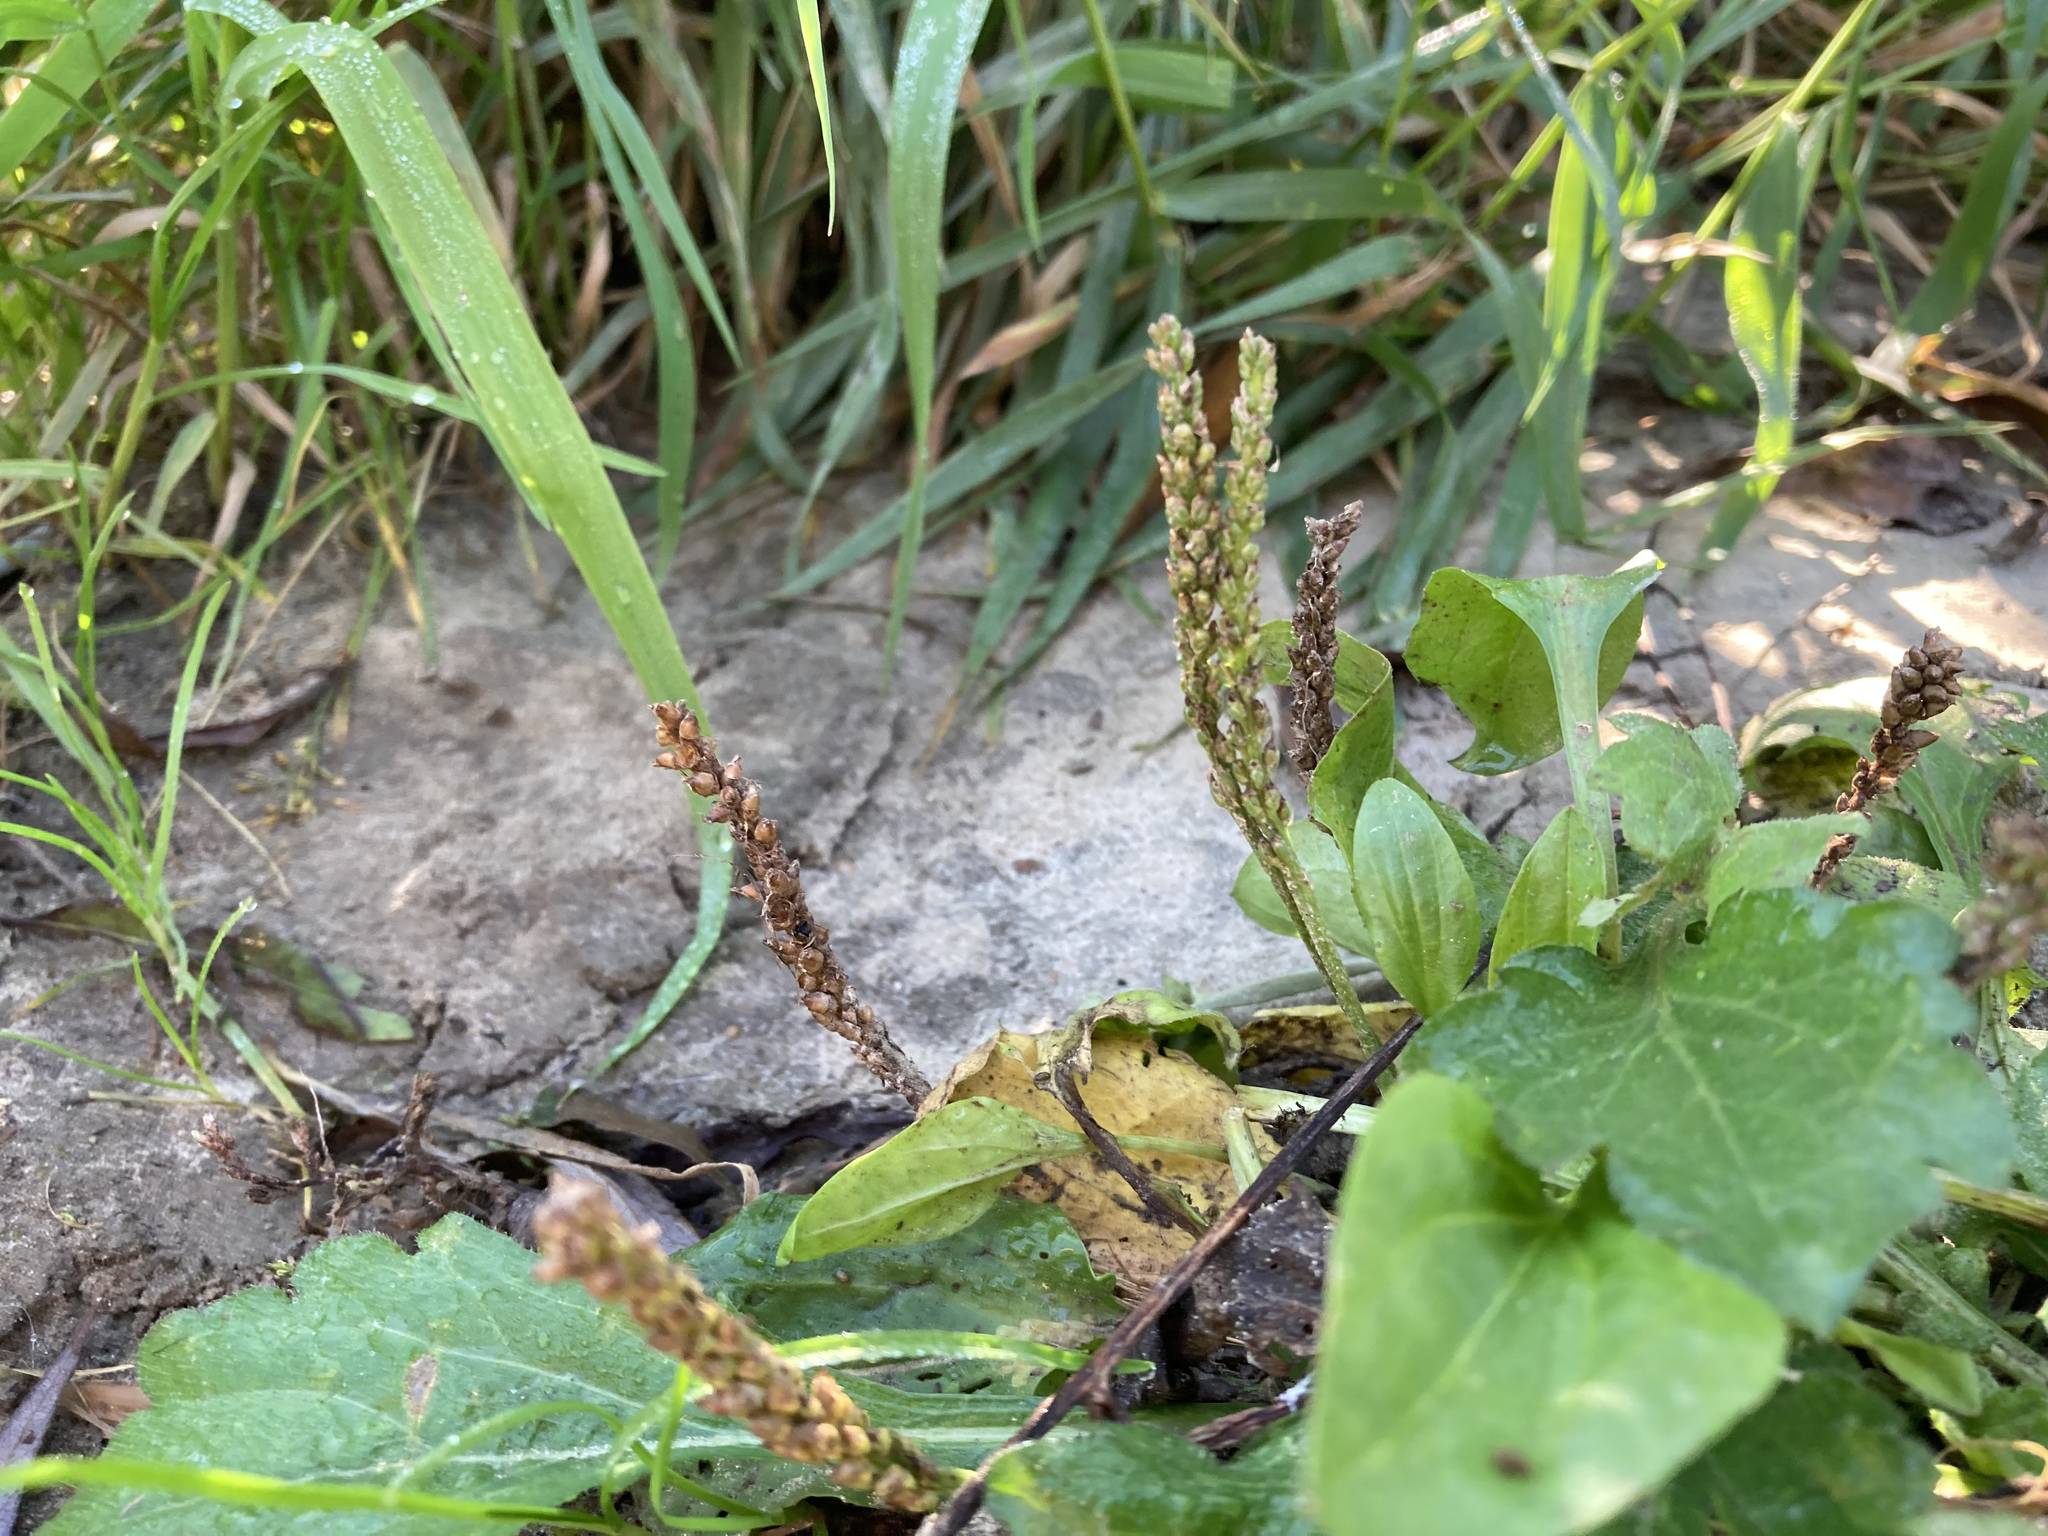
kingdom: Plantae
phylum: Tracheophyta
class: Magnoliopsida
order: Lamiales
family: Plantaginaceae
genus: Plantago
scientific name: Plantago major
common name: Common plantain
